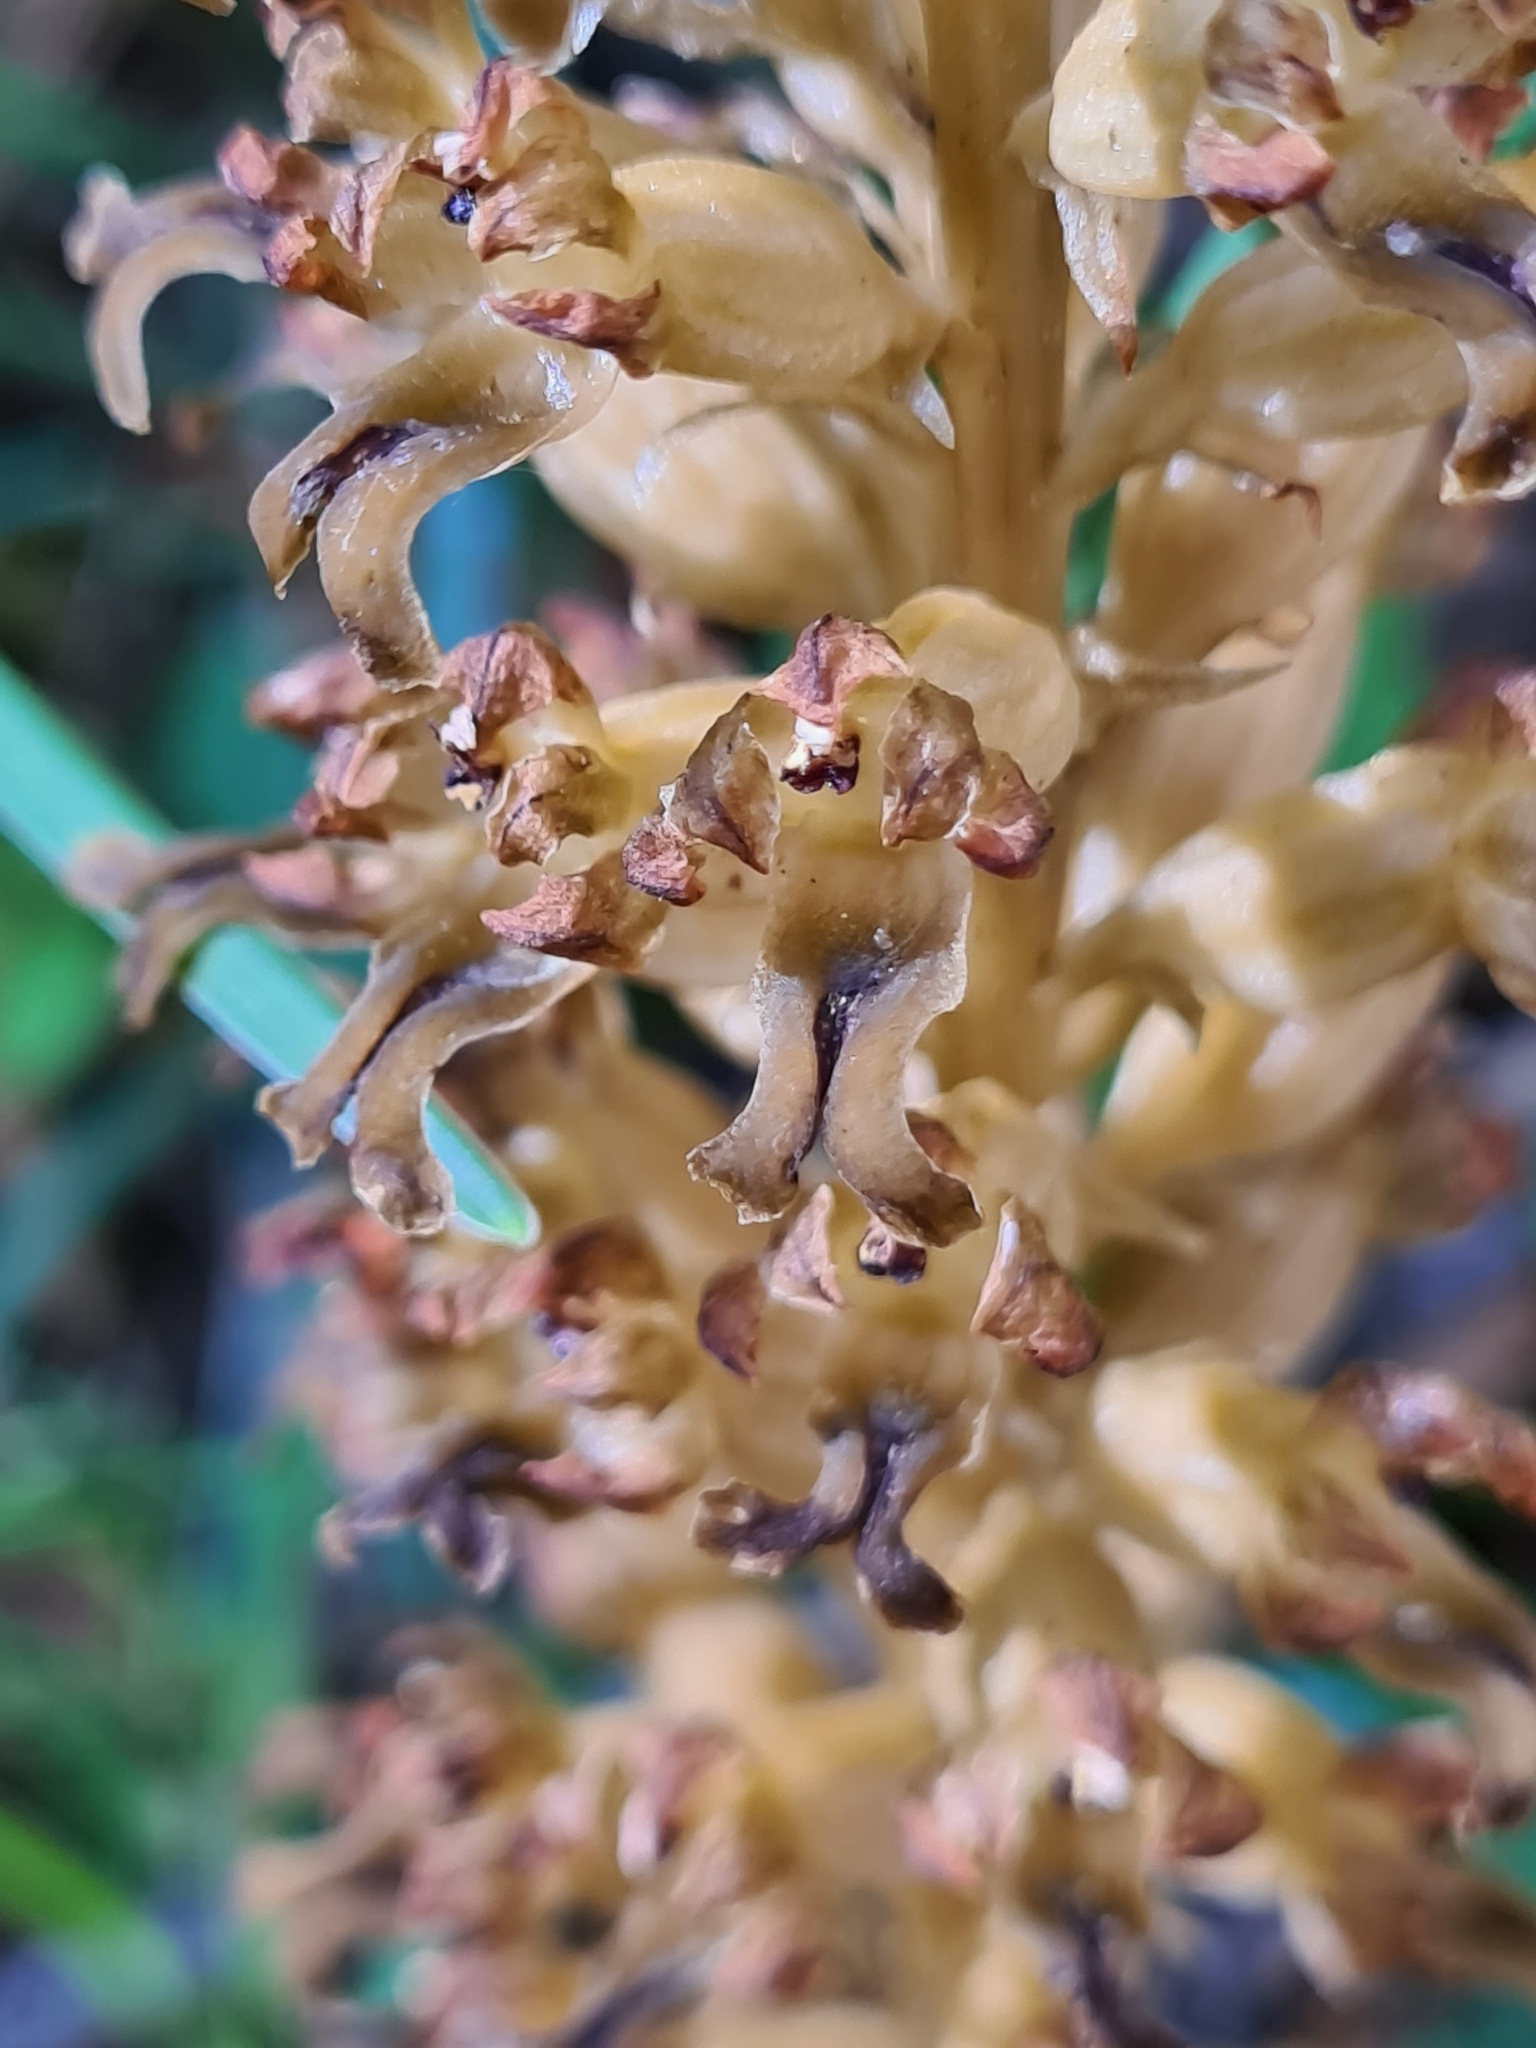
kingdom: Plantae
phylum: Tracheophyta
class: Liliopsida
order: Asparagales
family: Orchidaceae
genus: Neottia
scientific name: Neottia nidus-avis
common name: Bird's-nest orchid
